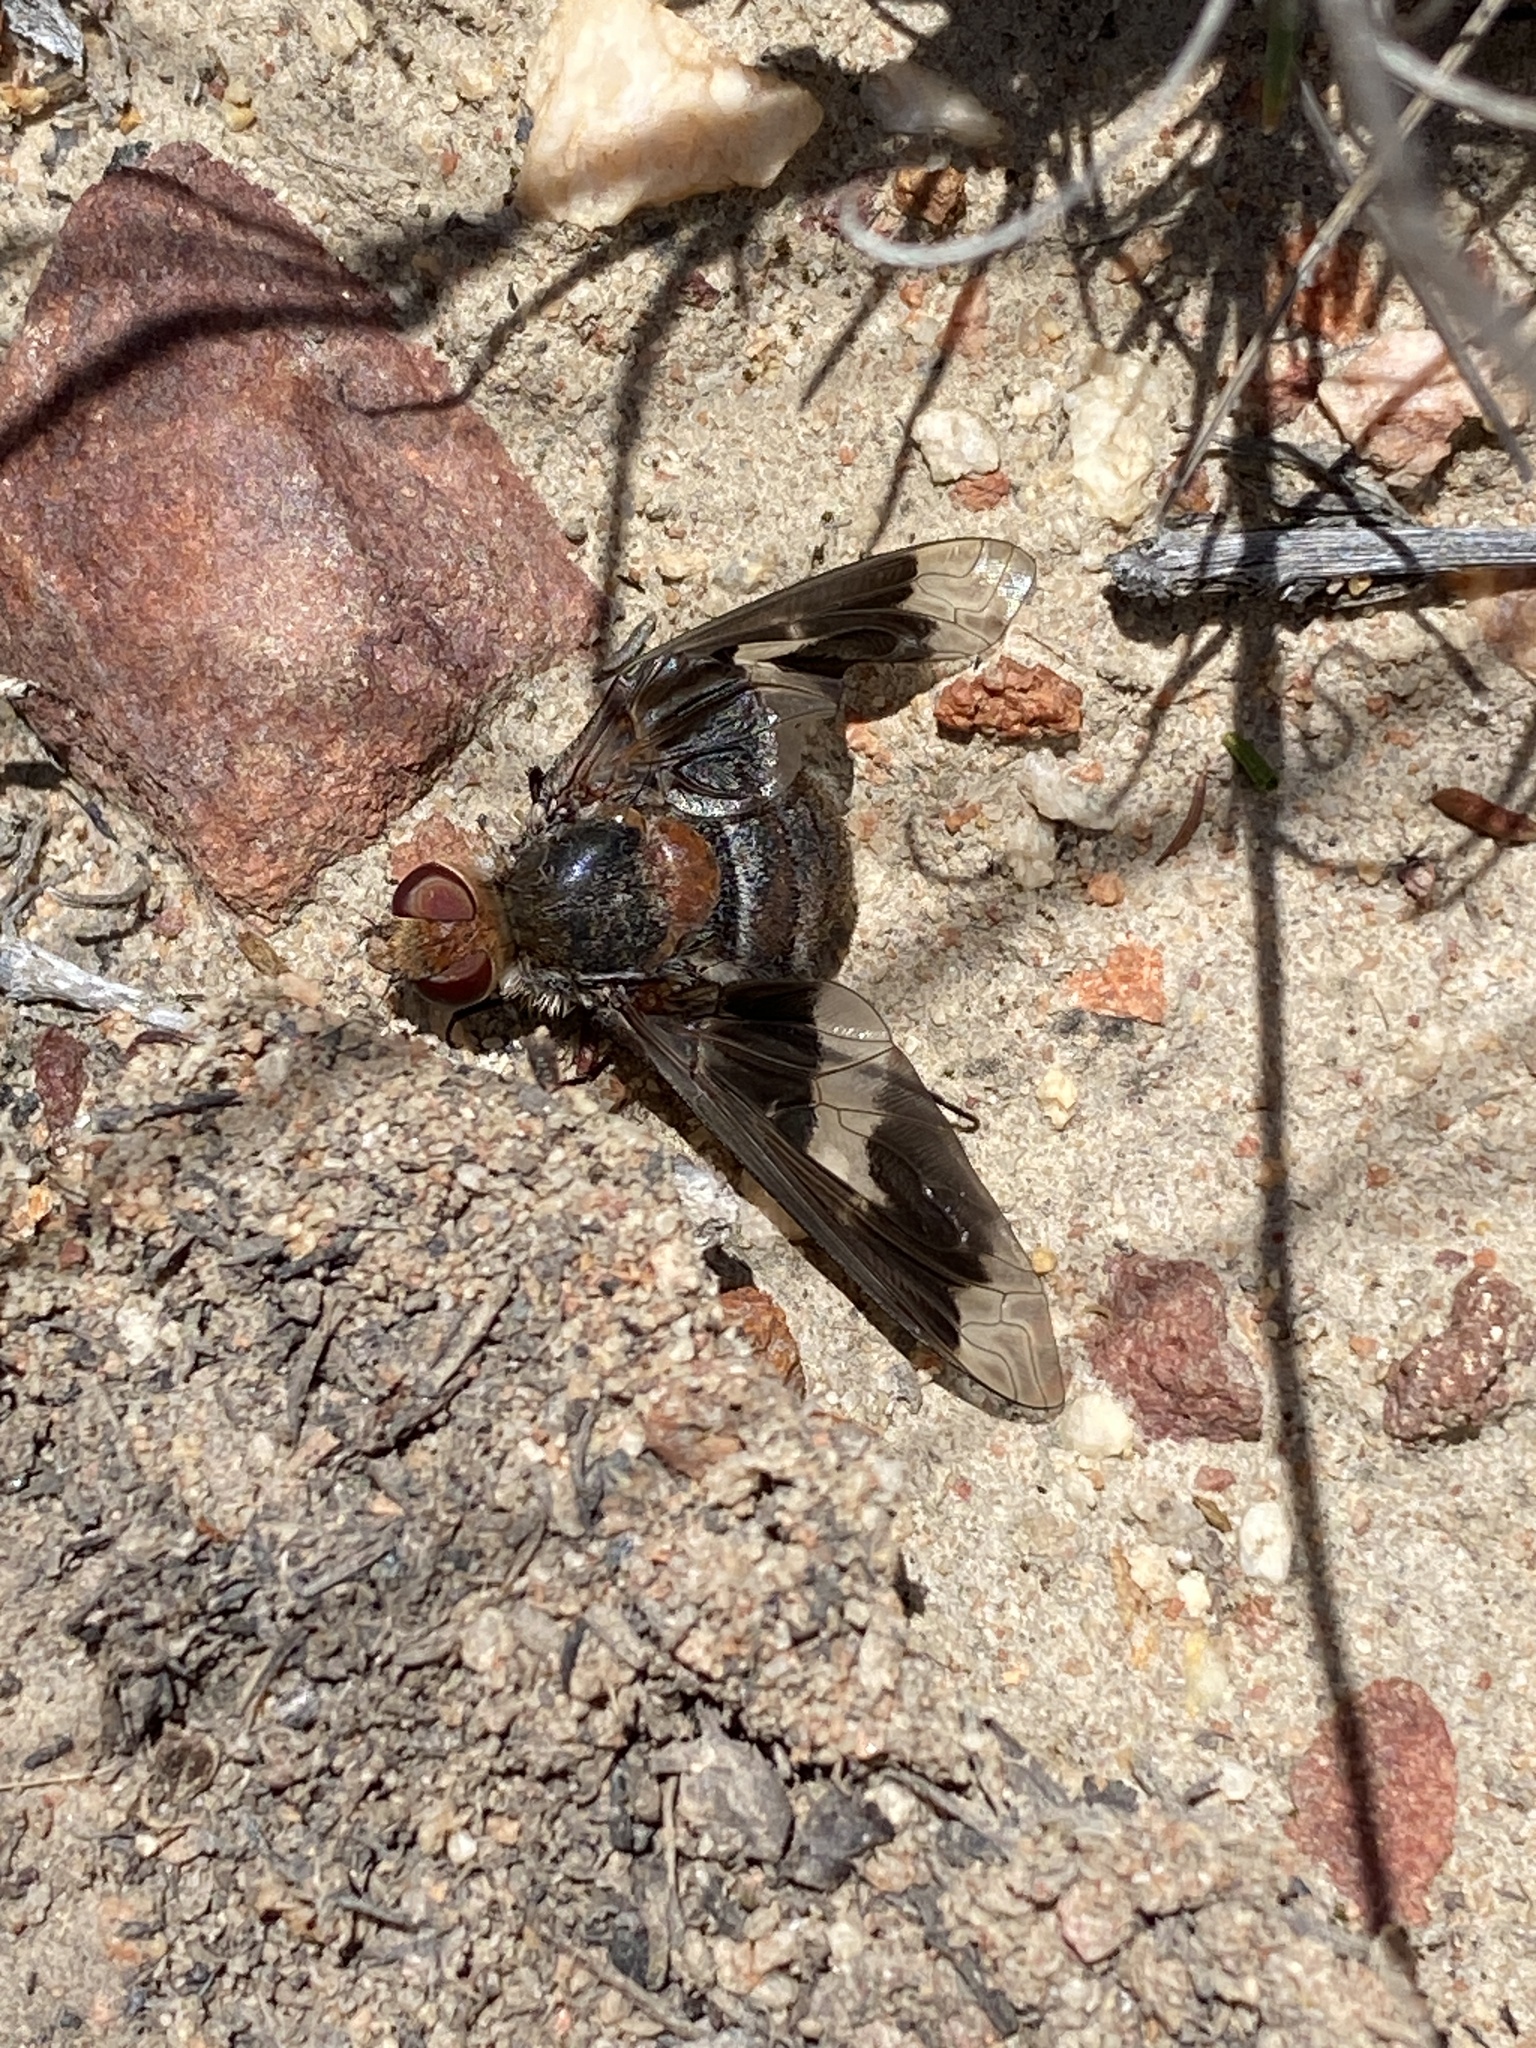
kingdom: Animalia
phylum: Arthropoda
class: Insecta
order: Diptera
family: Bombyliidae
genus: Exoprosopa
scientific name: Exoprosopa strenua
